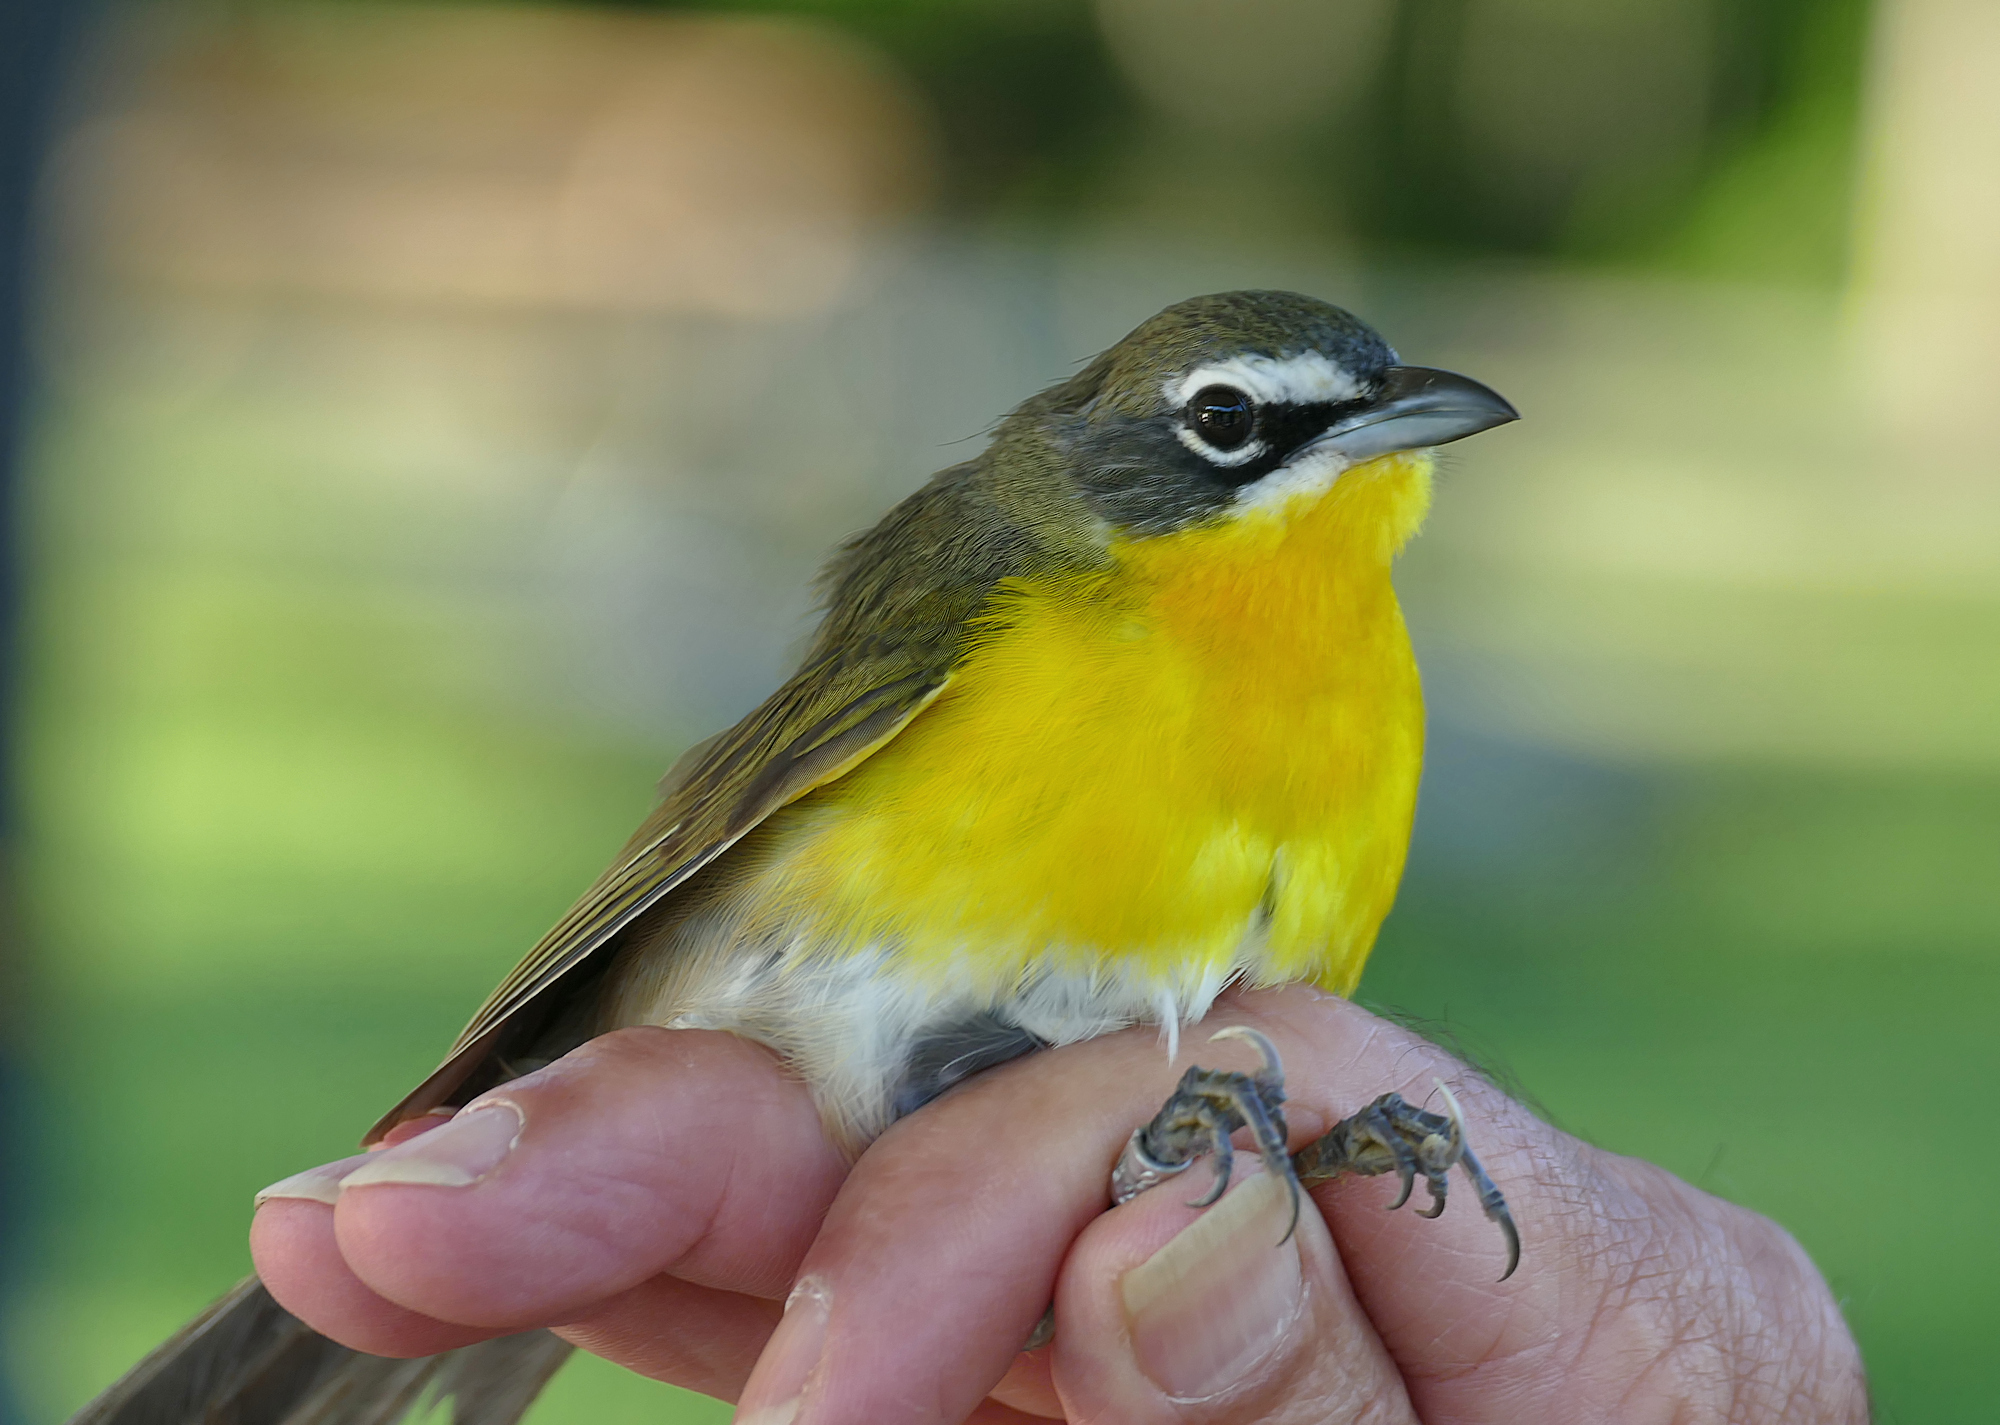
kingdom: Animalia
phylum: Chordata
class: Aves
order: Passeriformes
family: Parulidae
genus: Icteria
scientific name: Icteria virens
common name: Yellow-breasted chat
